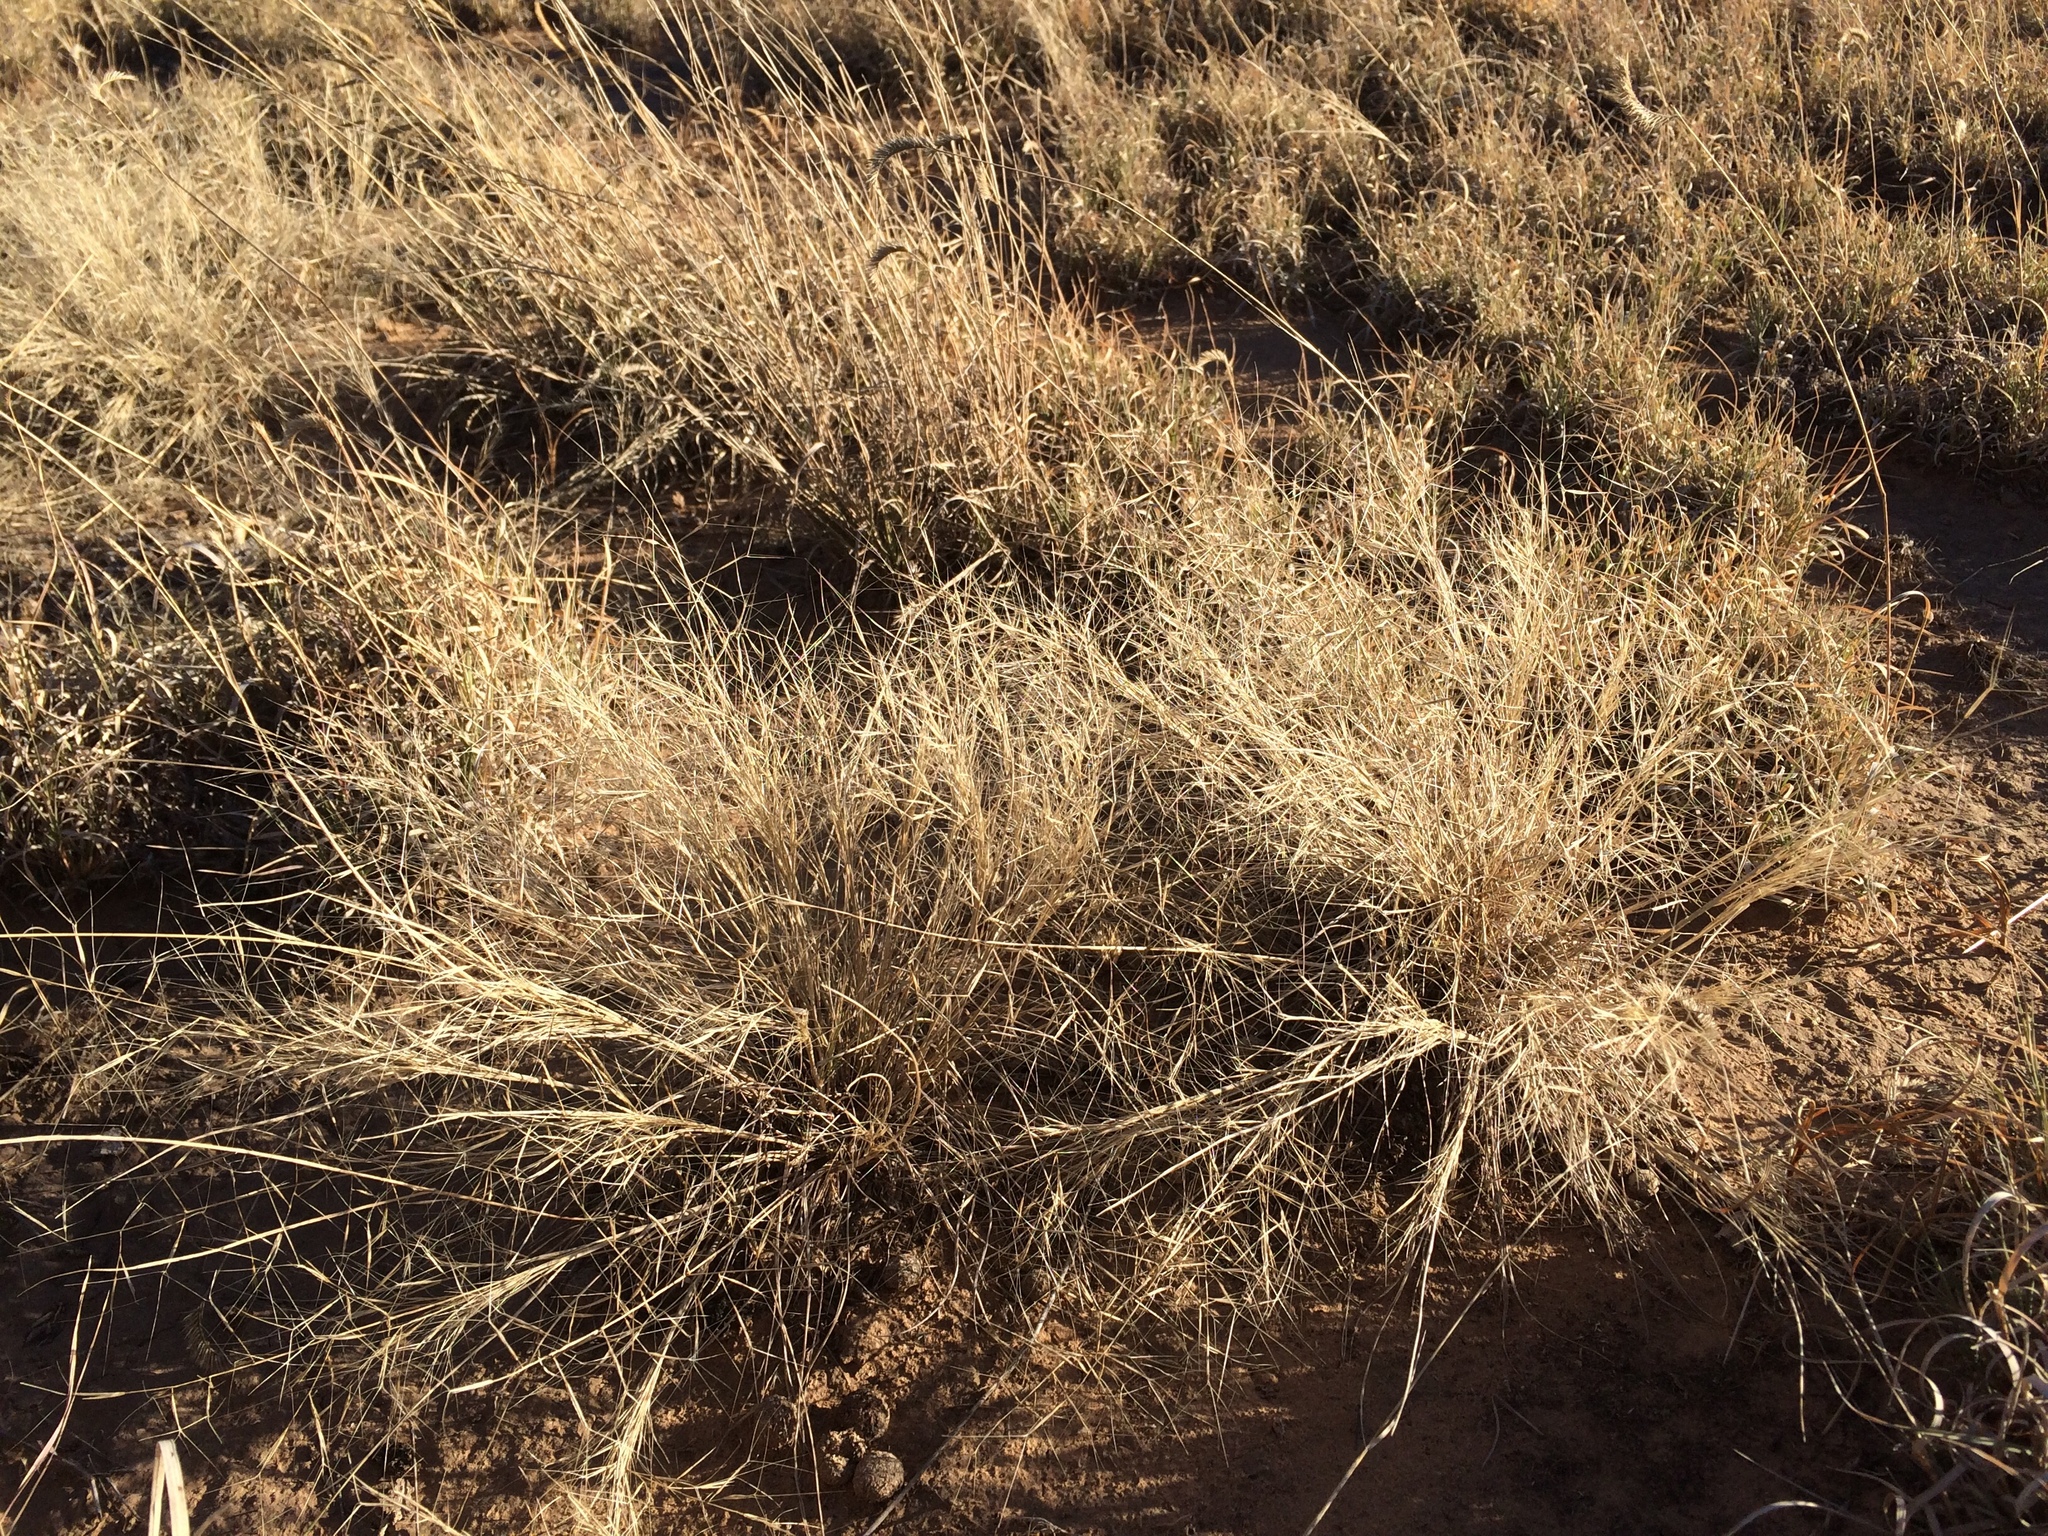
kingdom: Plantae
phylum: Tracheophyta
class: Liliopsida
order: Poales
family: Poaceae
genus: Aristida
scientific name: Aristida havardii
